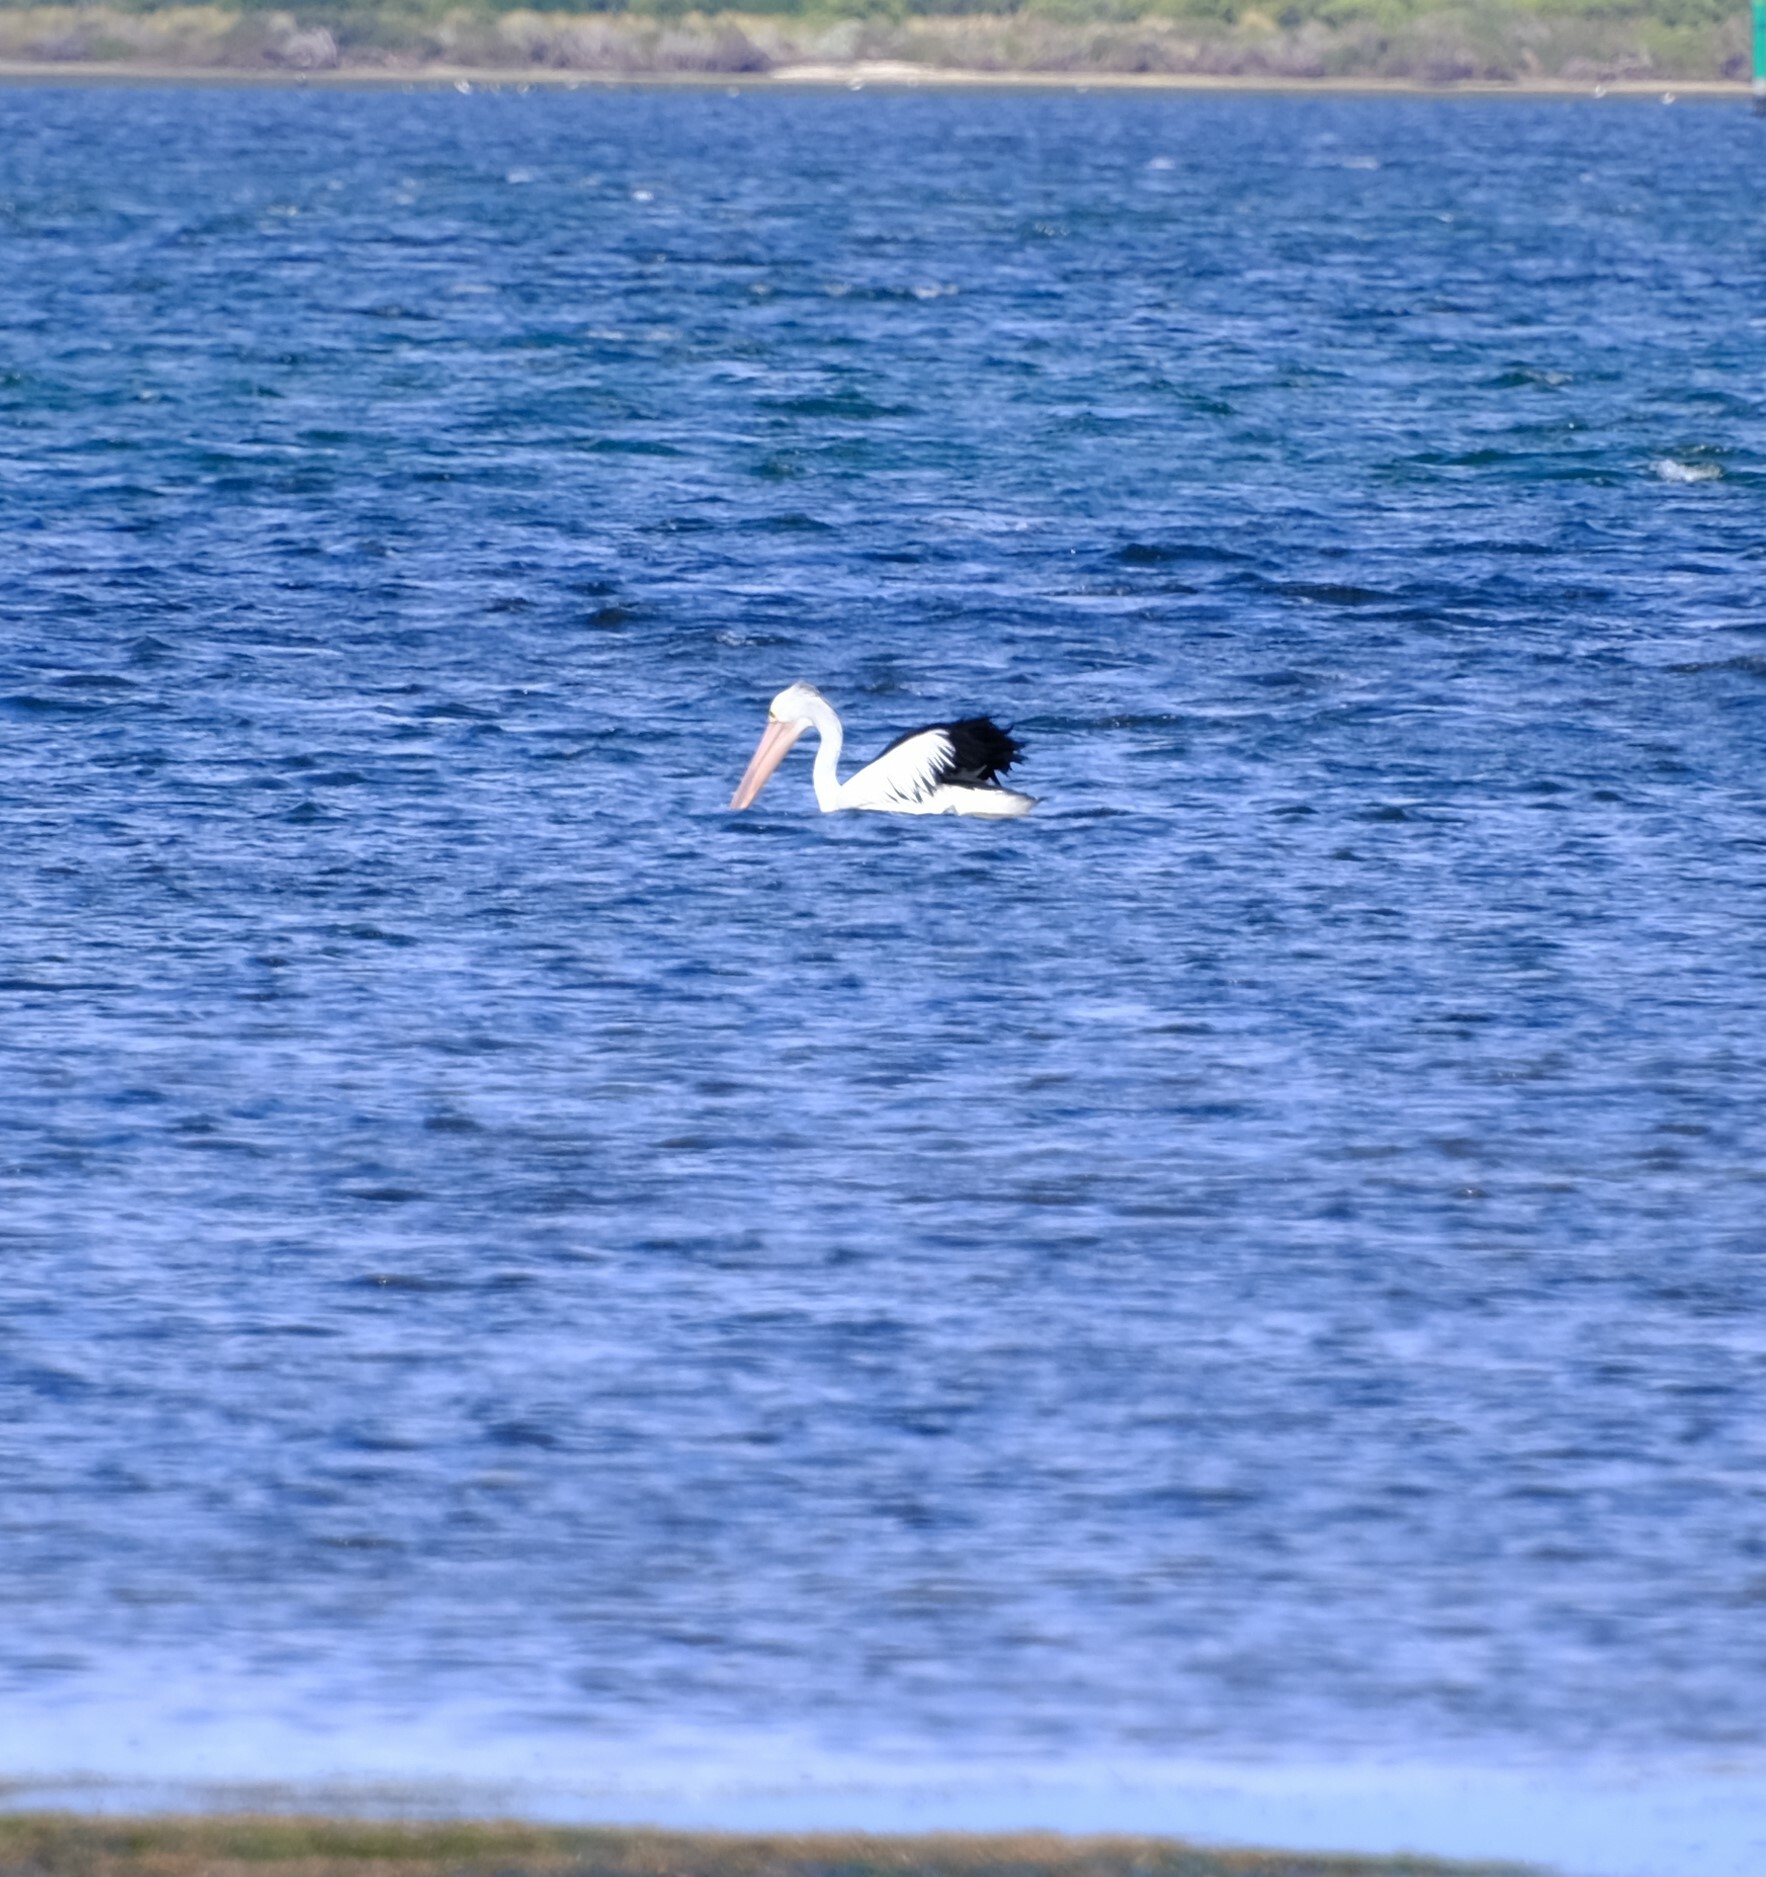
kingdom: Animalia
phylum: Chordata
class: Aves
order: Pelecaniformes
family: Pelecanidae
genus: Pelecanus
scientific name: Pelecanus conspicillatus
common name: Australian pelican
